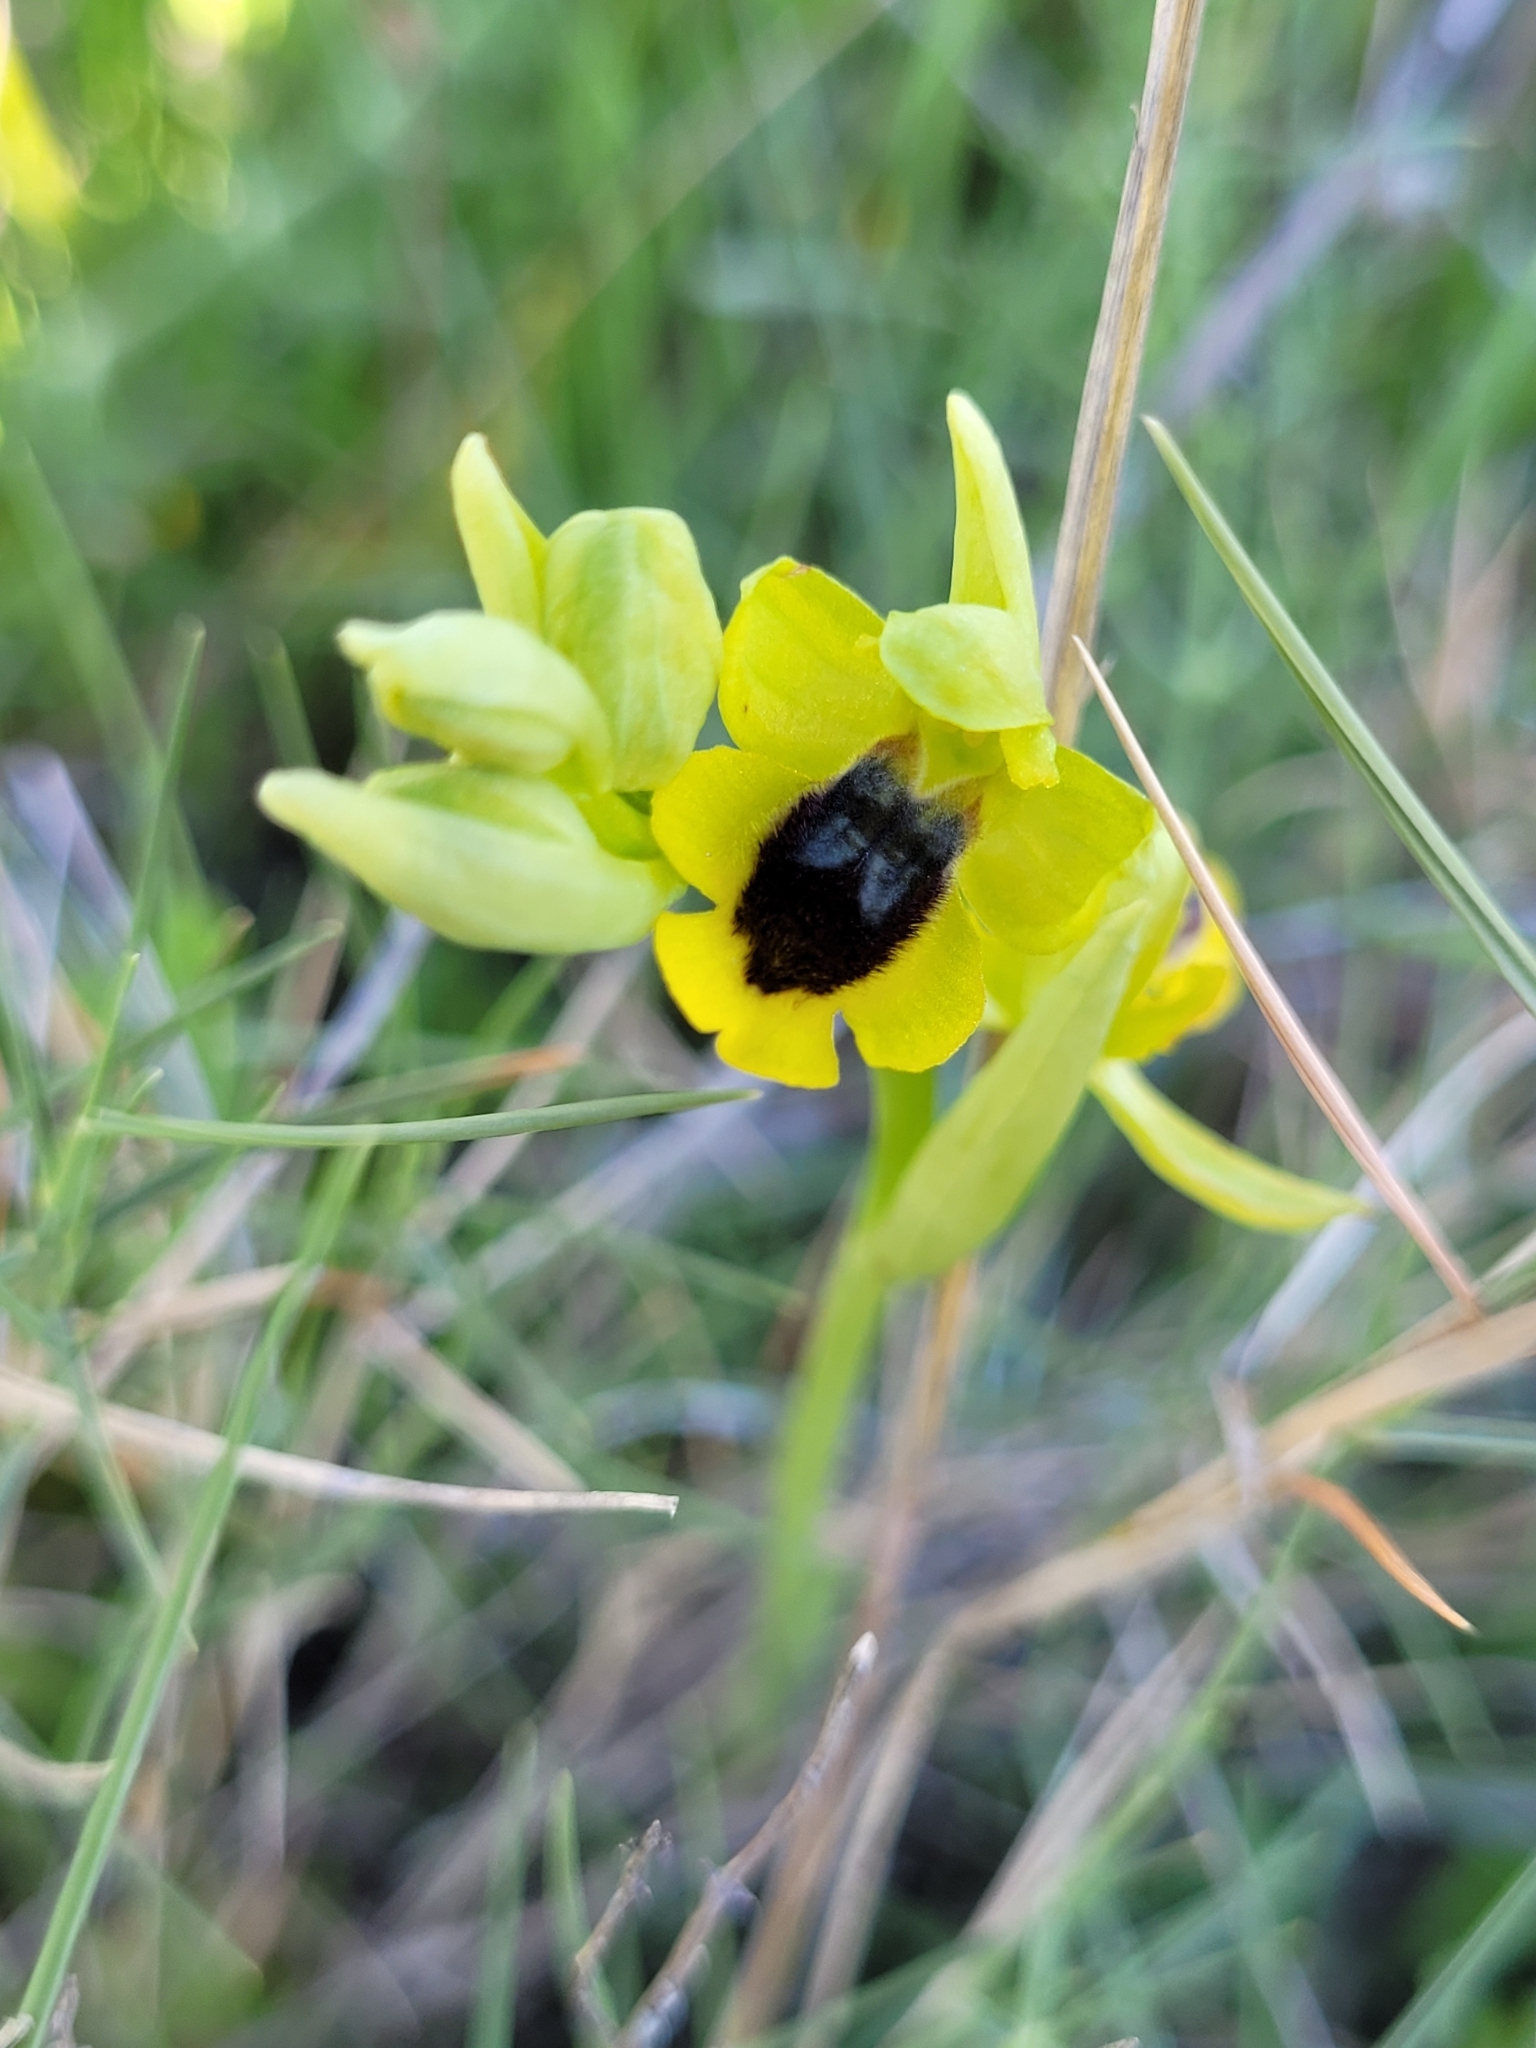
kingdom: Plantae
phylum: Tracheophyta
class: Liliopsida
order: Asparagales
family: Orchidaceae
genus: Ophrys
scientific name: Ophrys lutea
